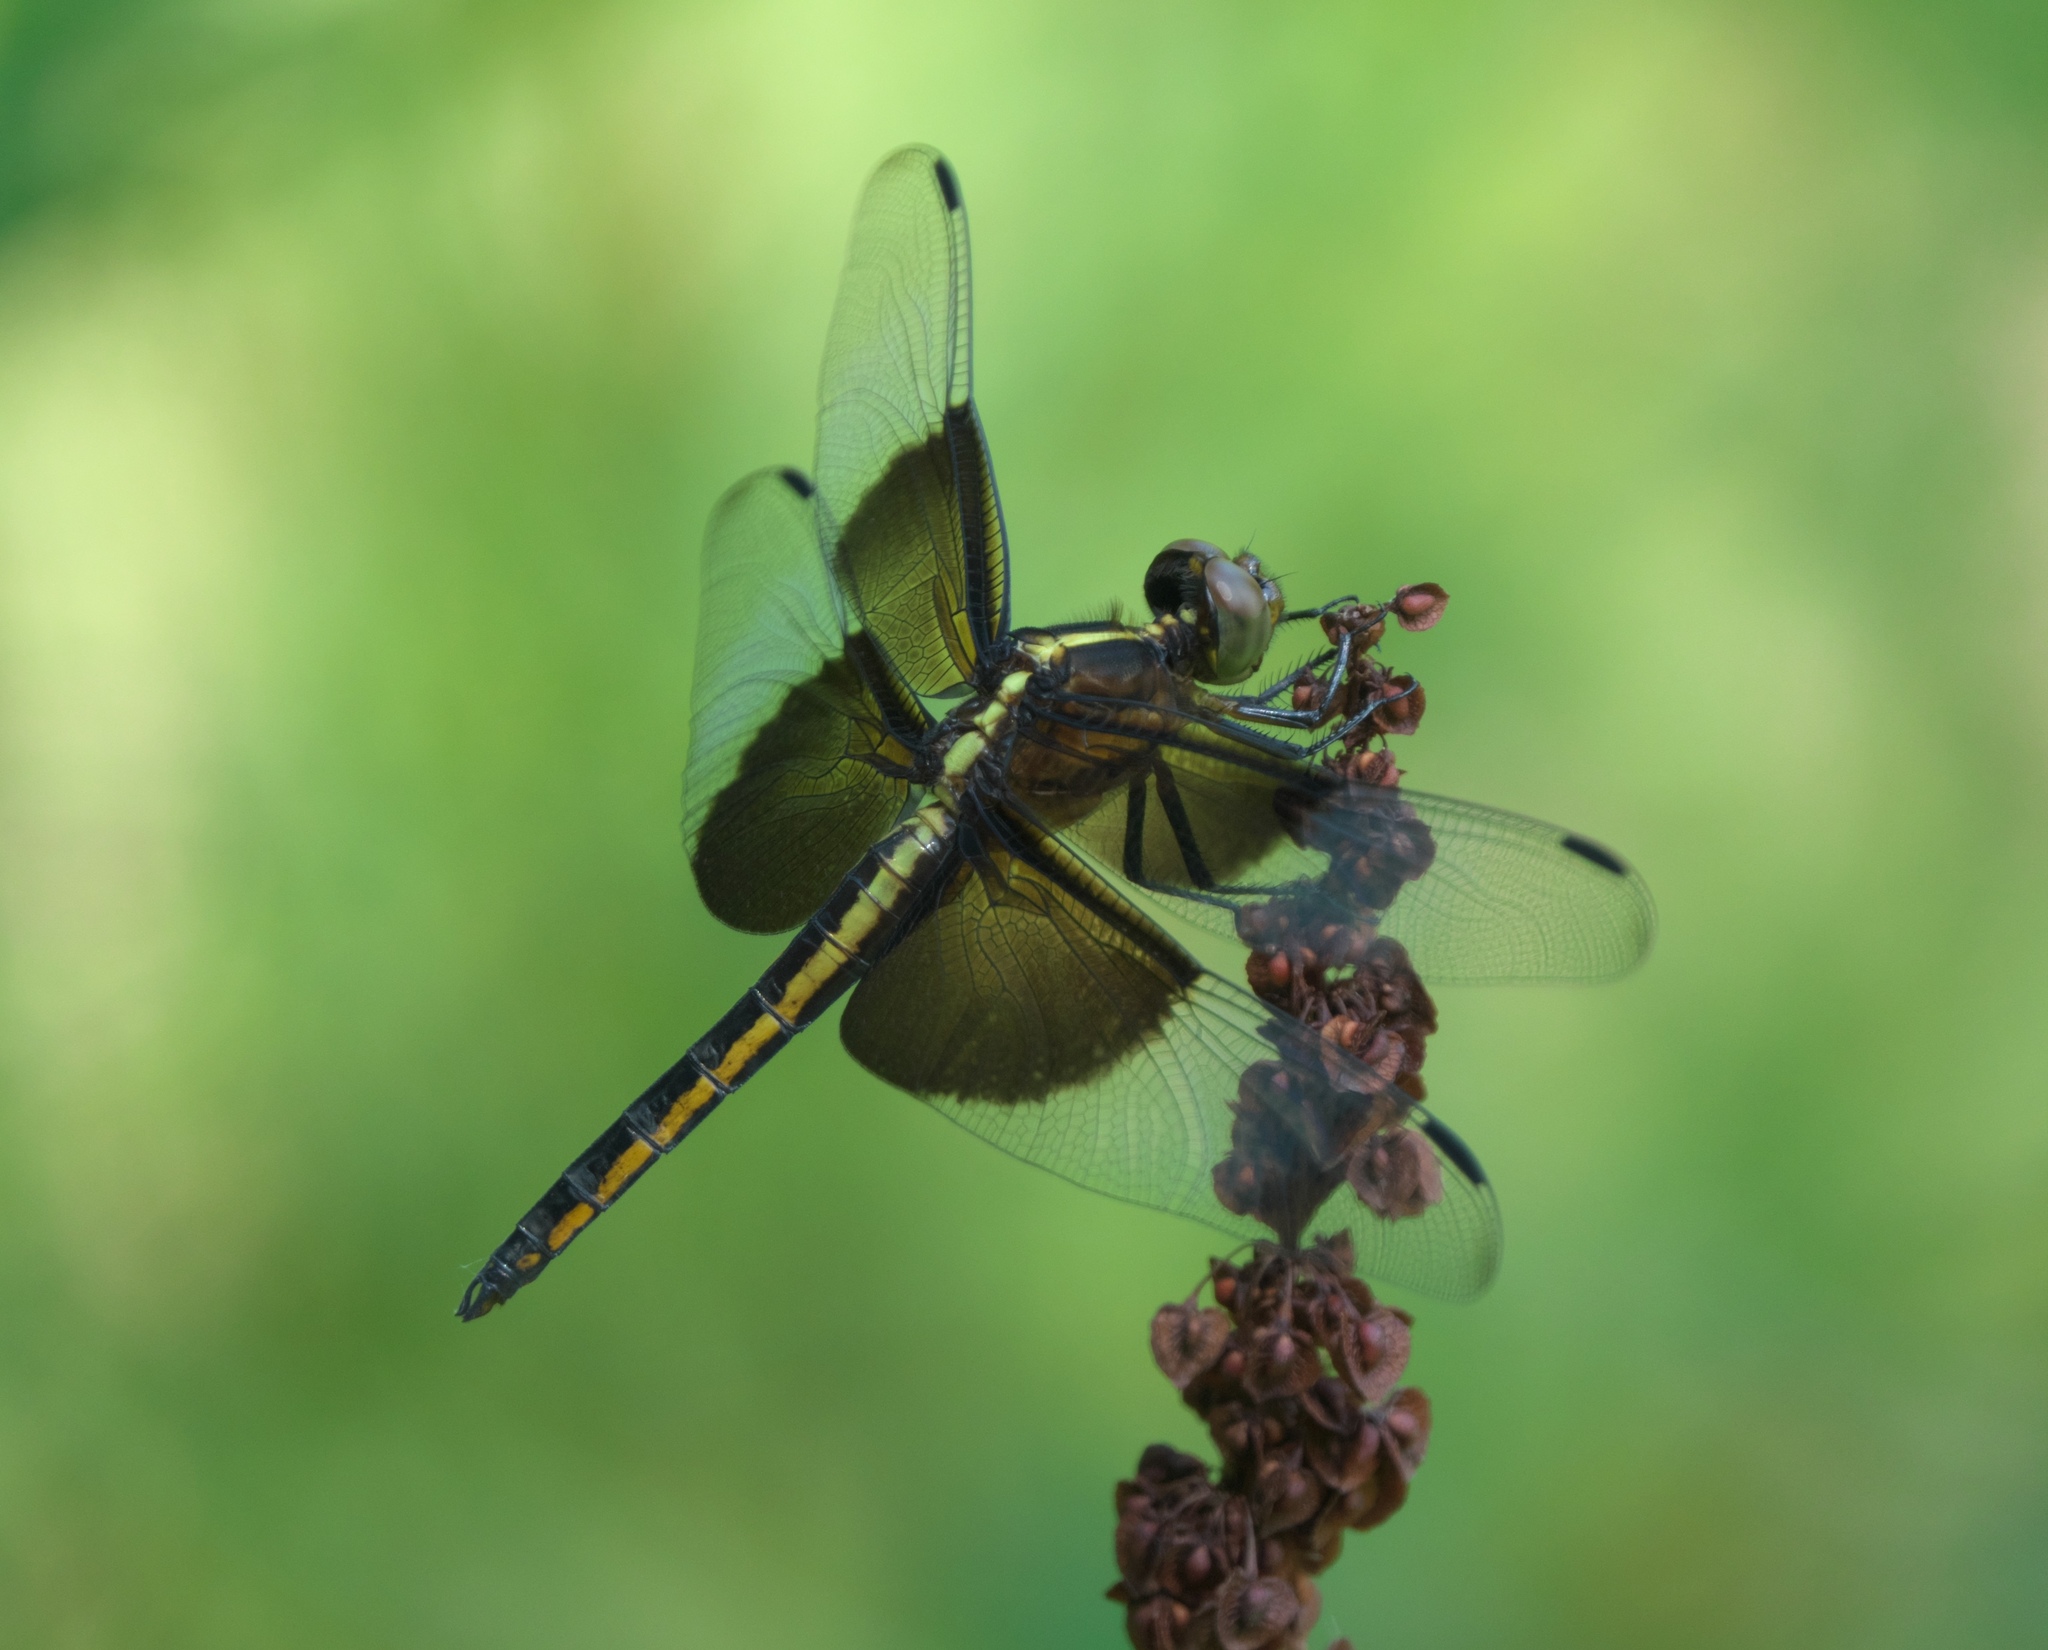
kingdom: Animalia
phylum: Arthropoda
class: Insecta
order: Odonata
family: Libellulidae
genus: Libellula
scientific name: Libellula luctuosa
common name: Widow skimmer
